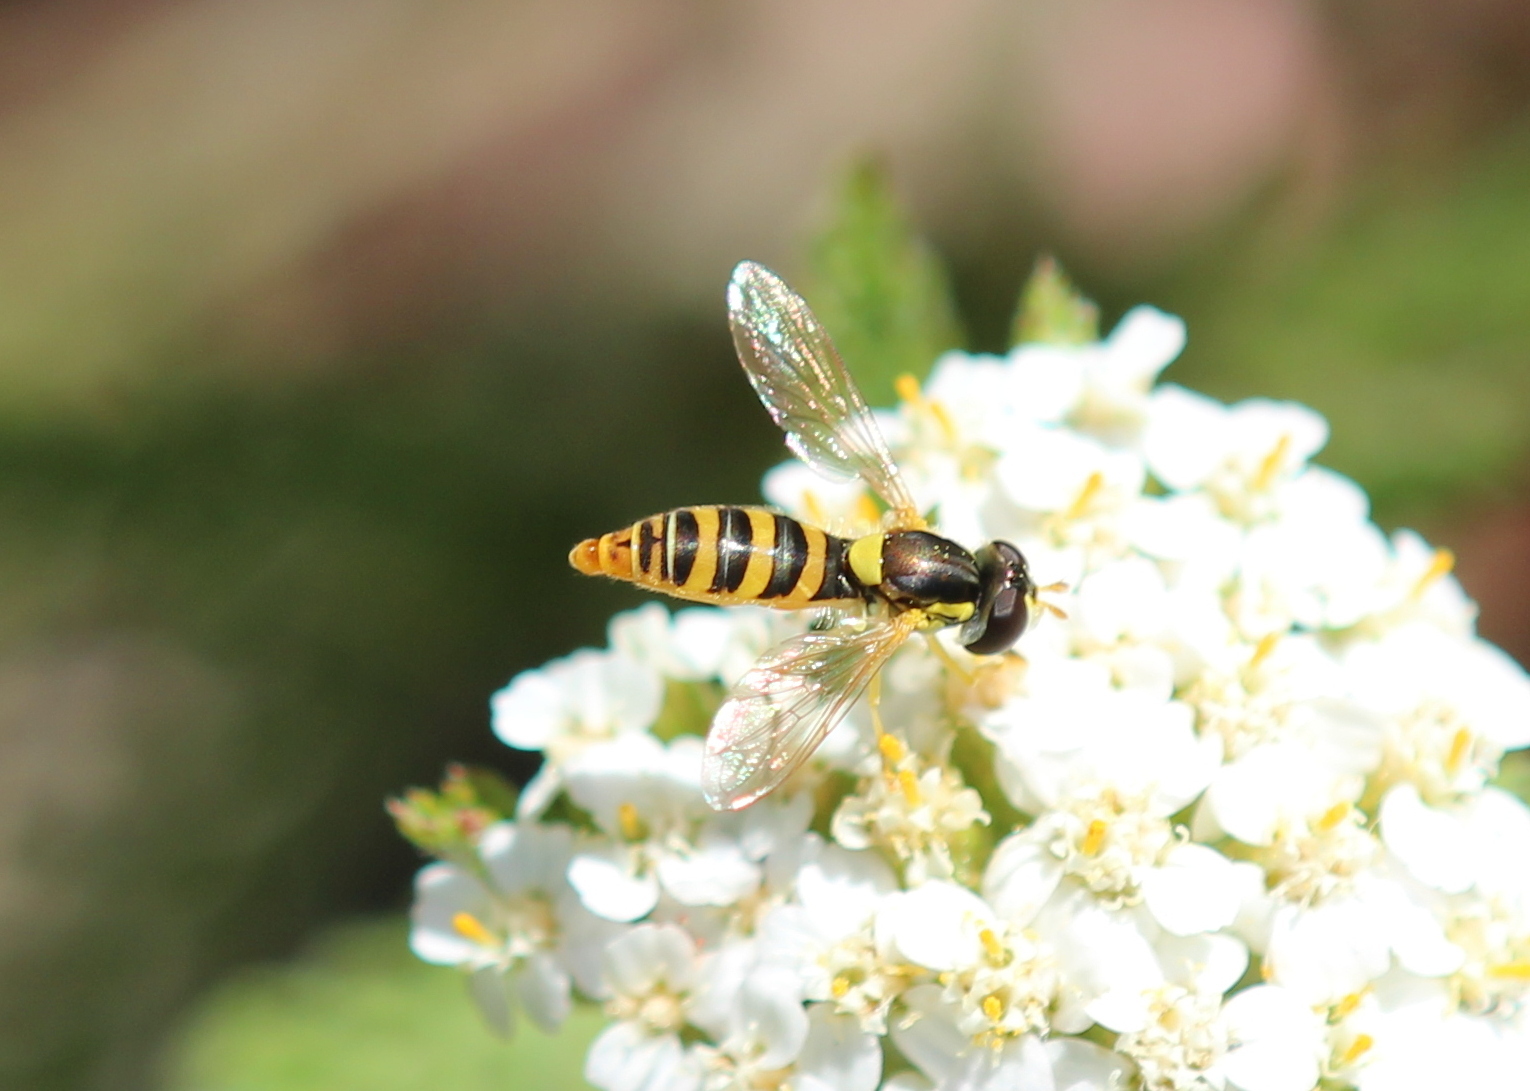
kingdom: Animalia
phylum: Arthropoda
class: Insecta
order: Diptera
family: Syrphidae
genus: Sphaerophoria
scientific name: Sphaerophoria contigua
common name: Tufted globetail
